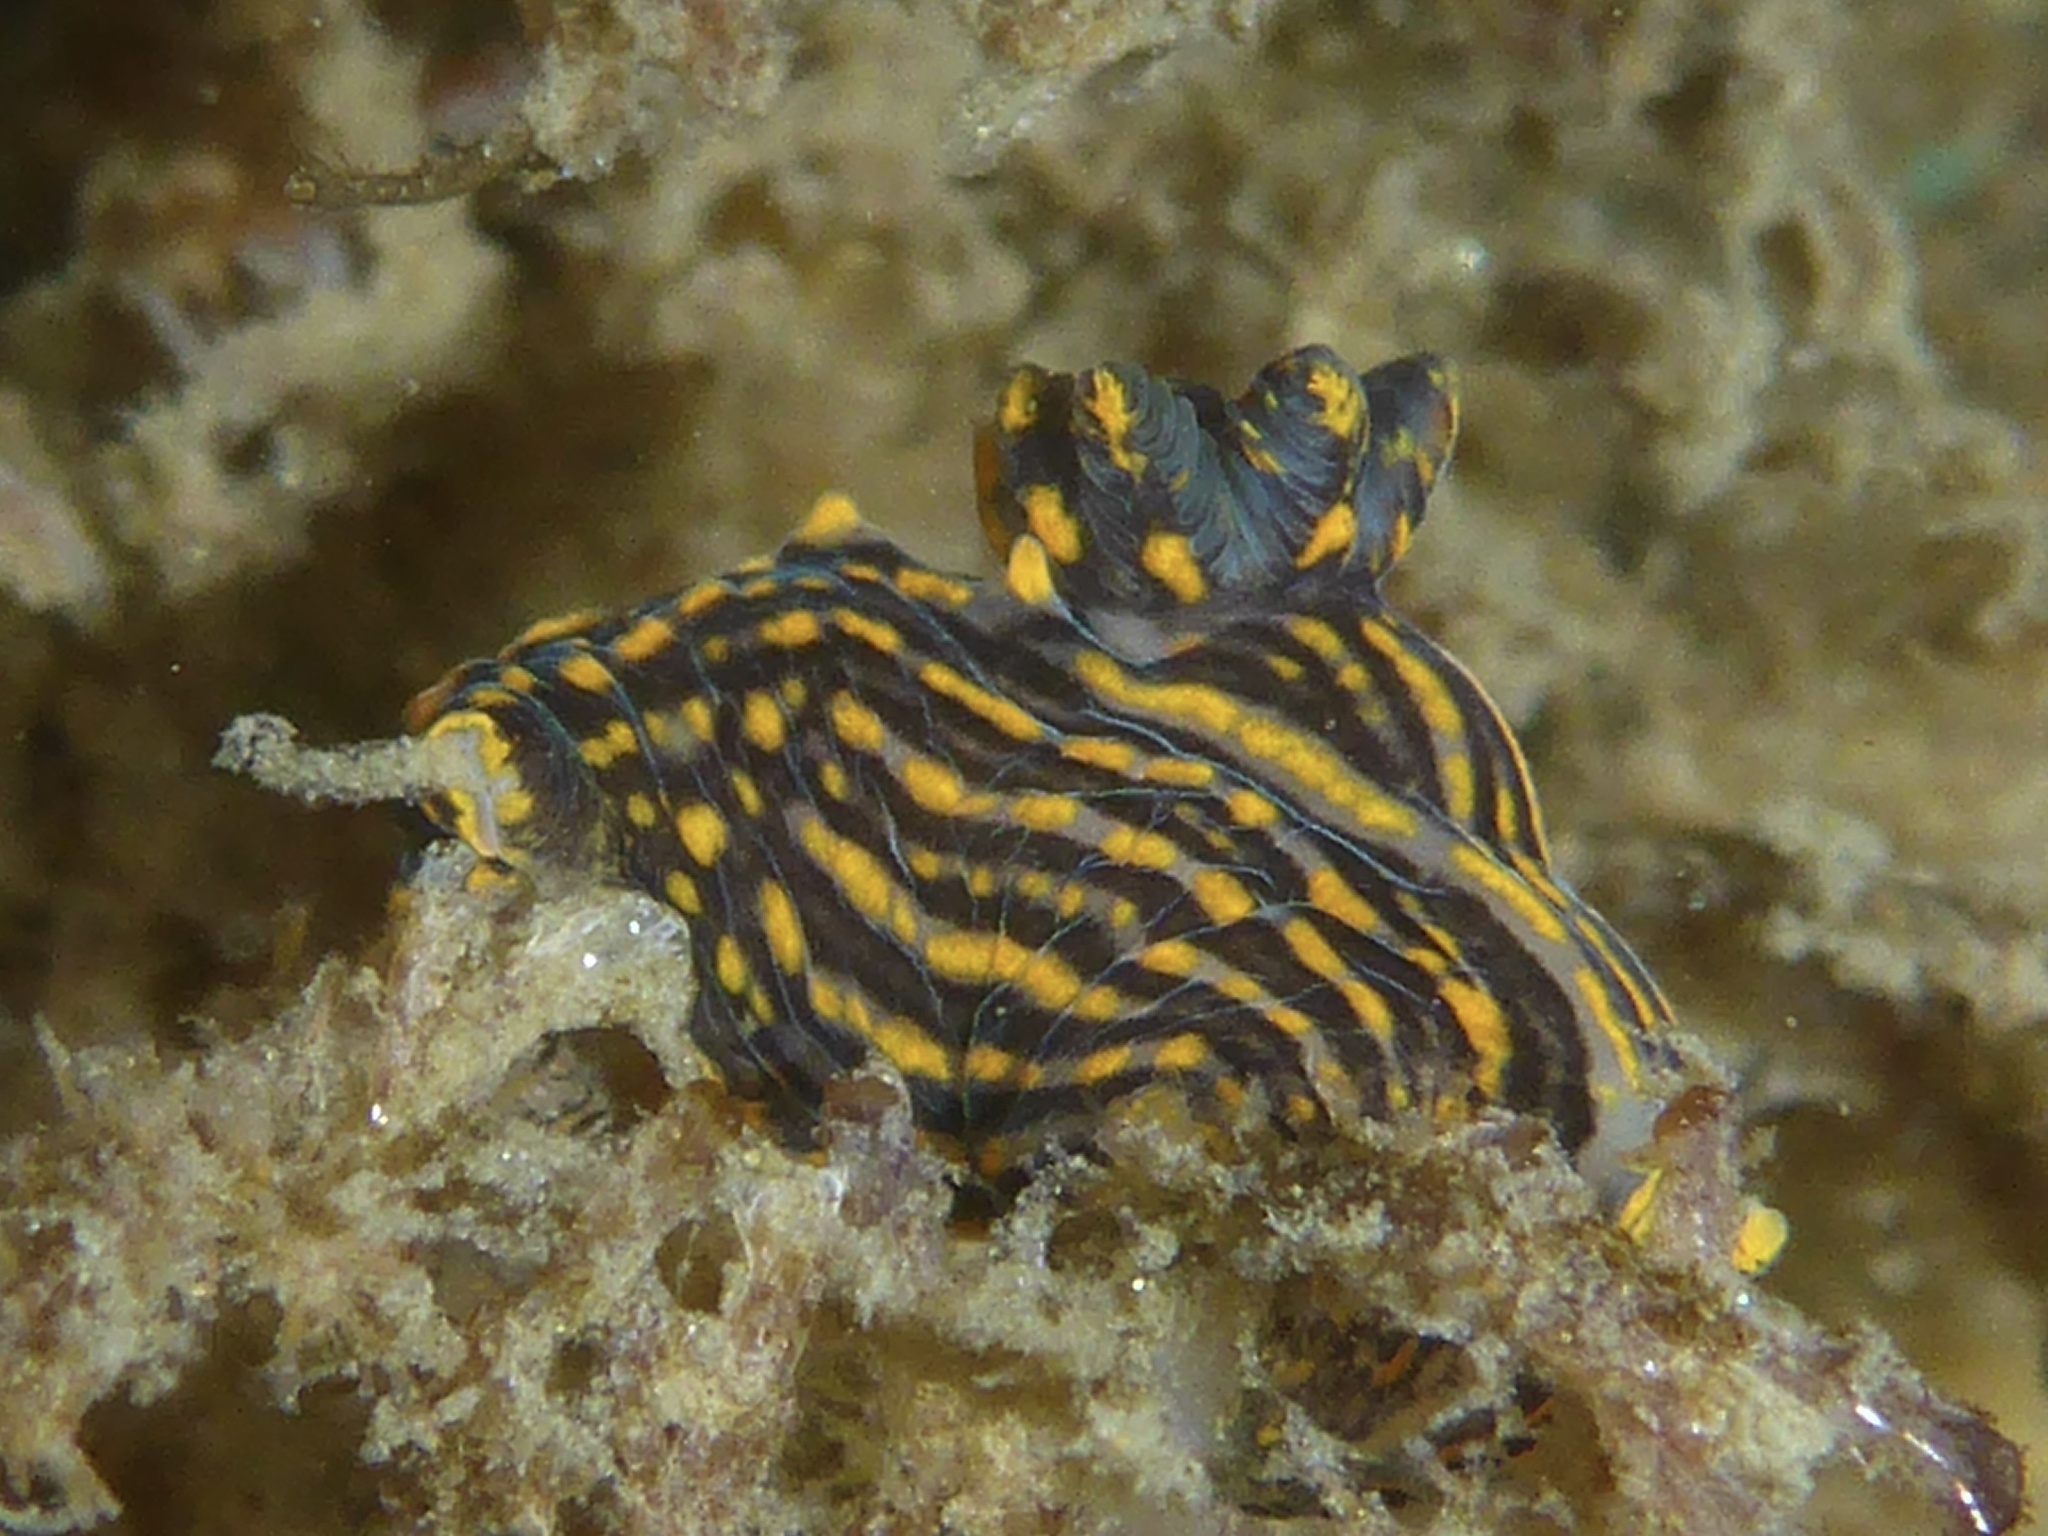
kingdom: Animalia
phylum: Mollusca
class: Gastropoda
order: Nudibranchia
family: Polyceridae
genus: Polycera
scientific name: Polycera atra
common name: Orange-spike polycera
